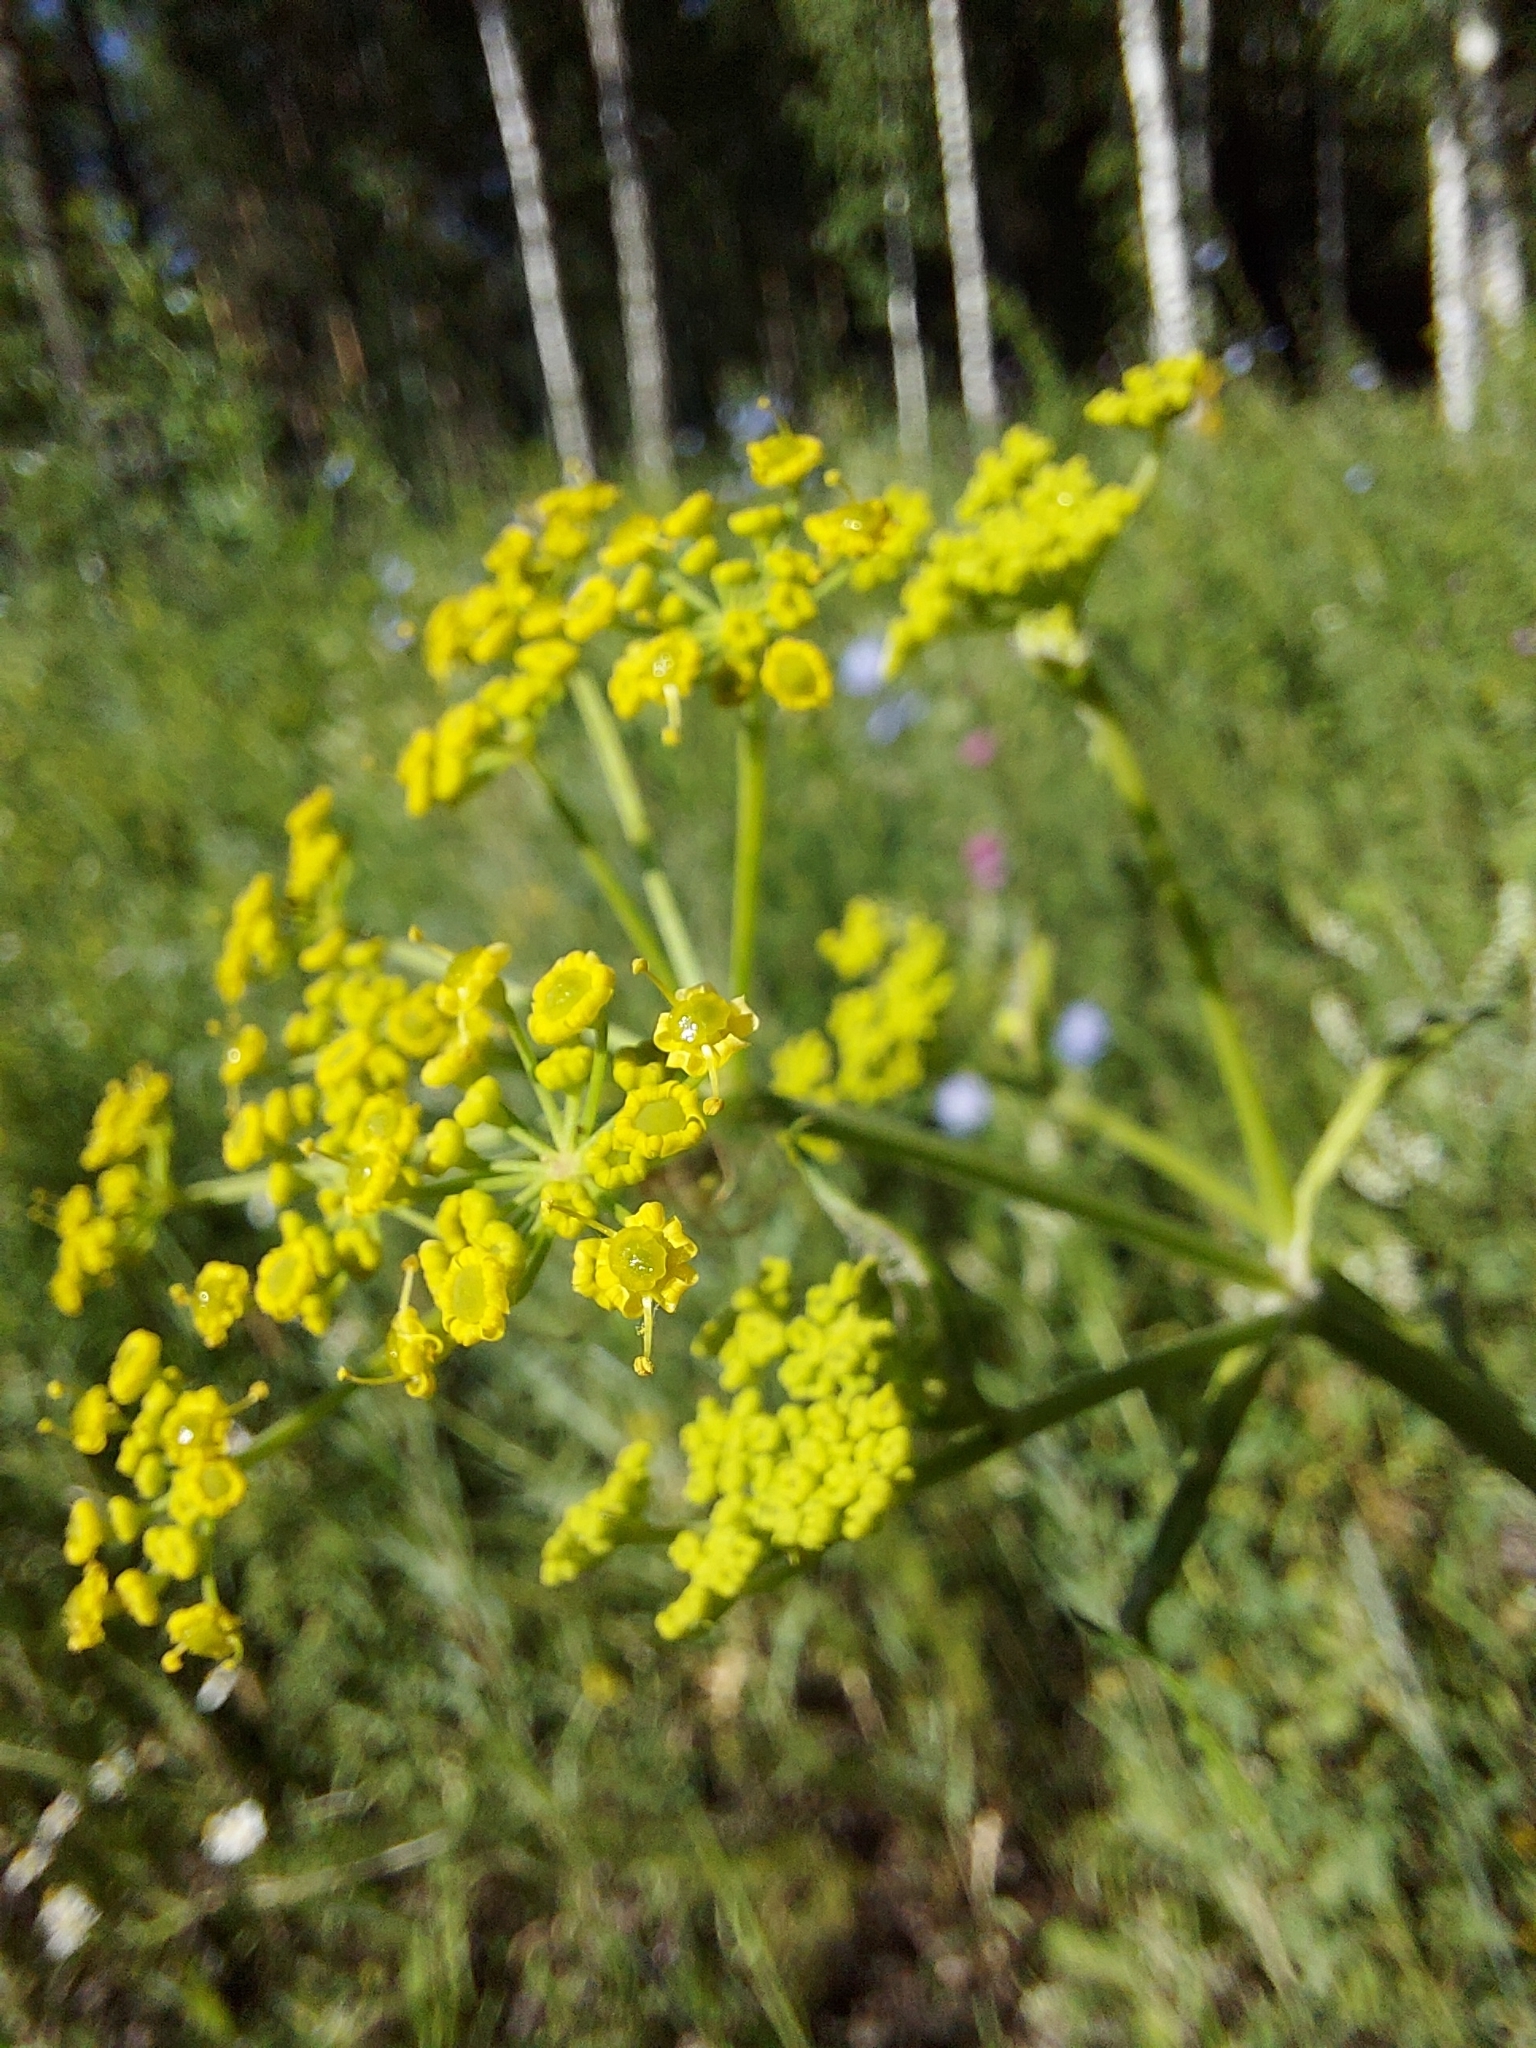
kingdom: Plantae
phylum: Tracheophyta
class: Magnoliopsida
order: Apiales
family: Apiaceae
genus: Pastinaca
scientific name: Pastinaca sativa
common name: Wild parsnip
